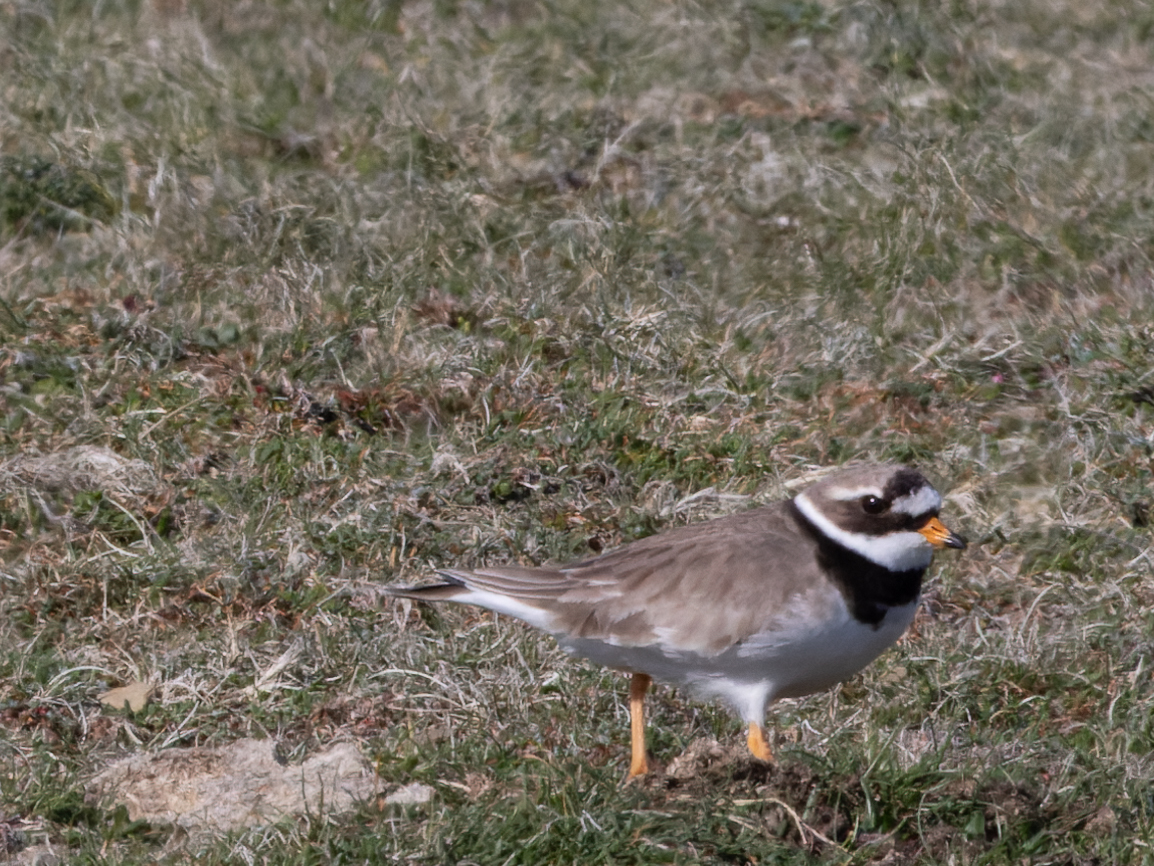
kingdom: Animalia
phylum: Chordata
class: Aves
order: Charadriiformes
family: Charadriidae
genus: Charadrius
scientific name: Charadrius hiaticula
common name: Common ringed plover
